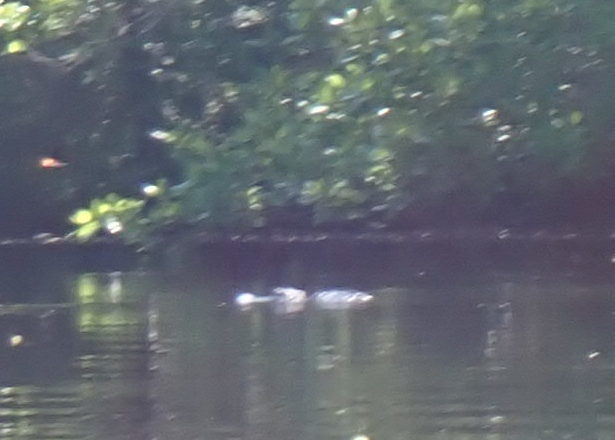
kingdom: Animalia
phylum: Chordata
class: Crocodylia
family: Alligatoridae
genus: Alligator
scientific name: Alligator mississippiensis
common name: American alligator
